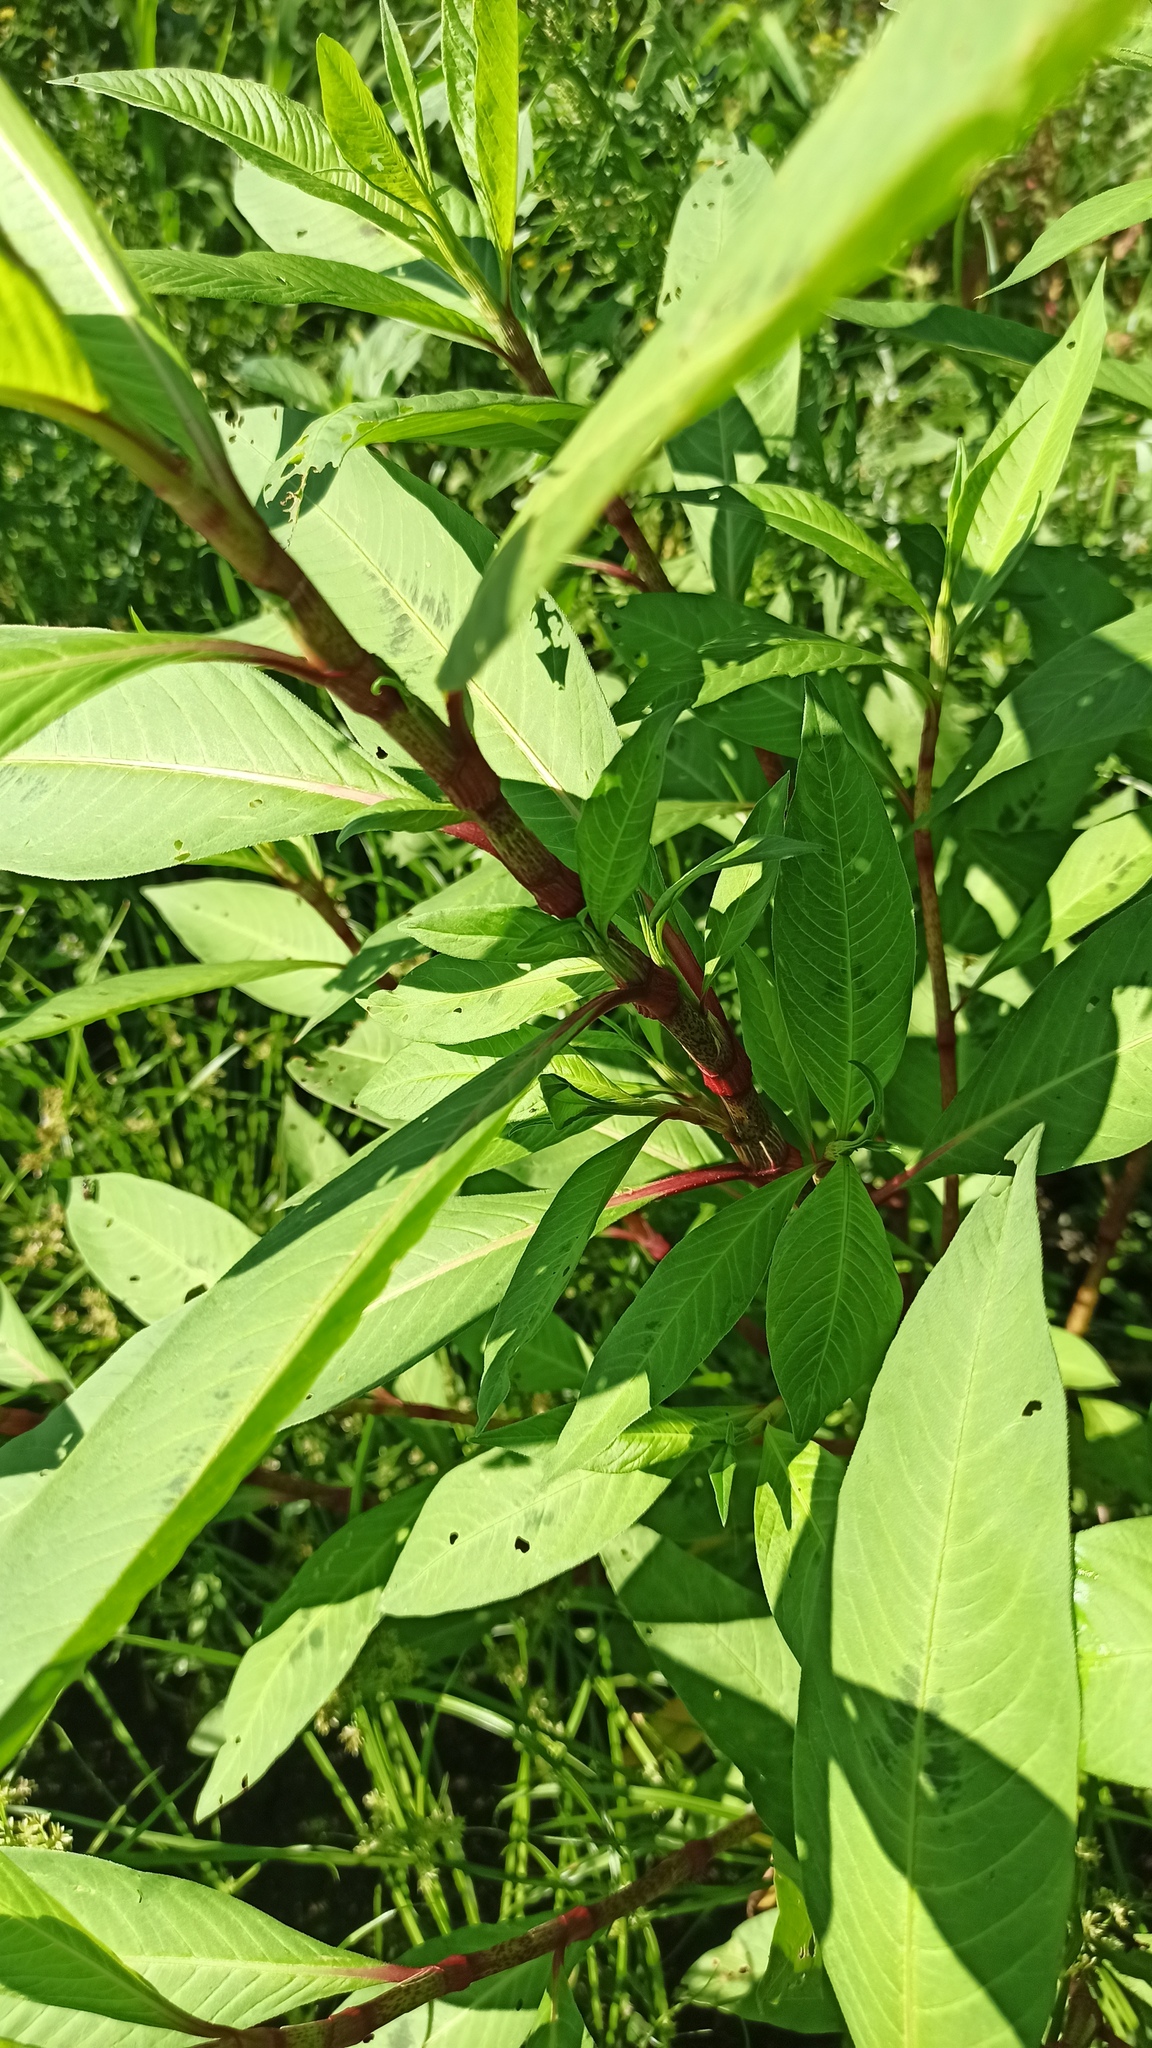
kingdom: Plantae
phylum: Tracheophyta
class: Magnoliopsida
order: Caryophyllales
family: Polygonaceae
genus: Persicaria
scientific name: Persicaria lapathifolia
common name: Curlytop knotweed
